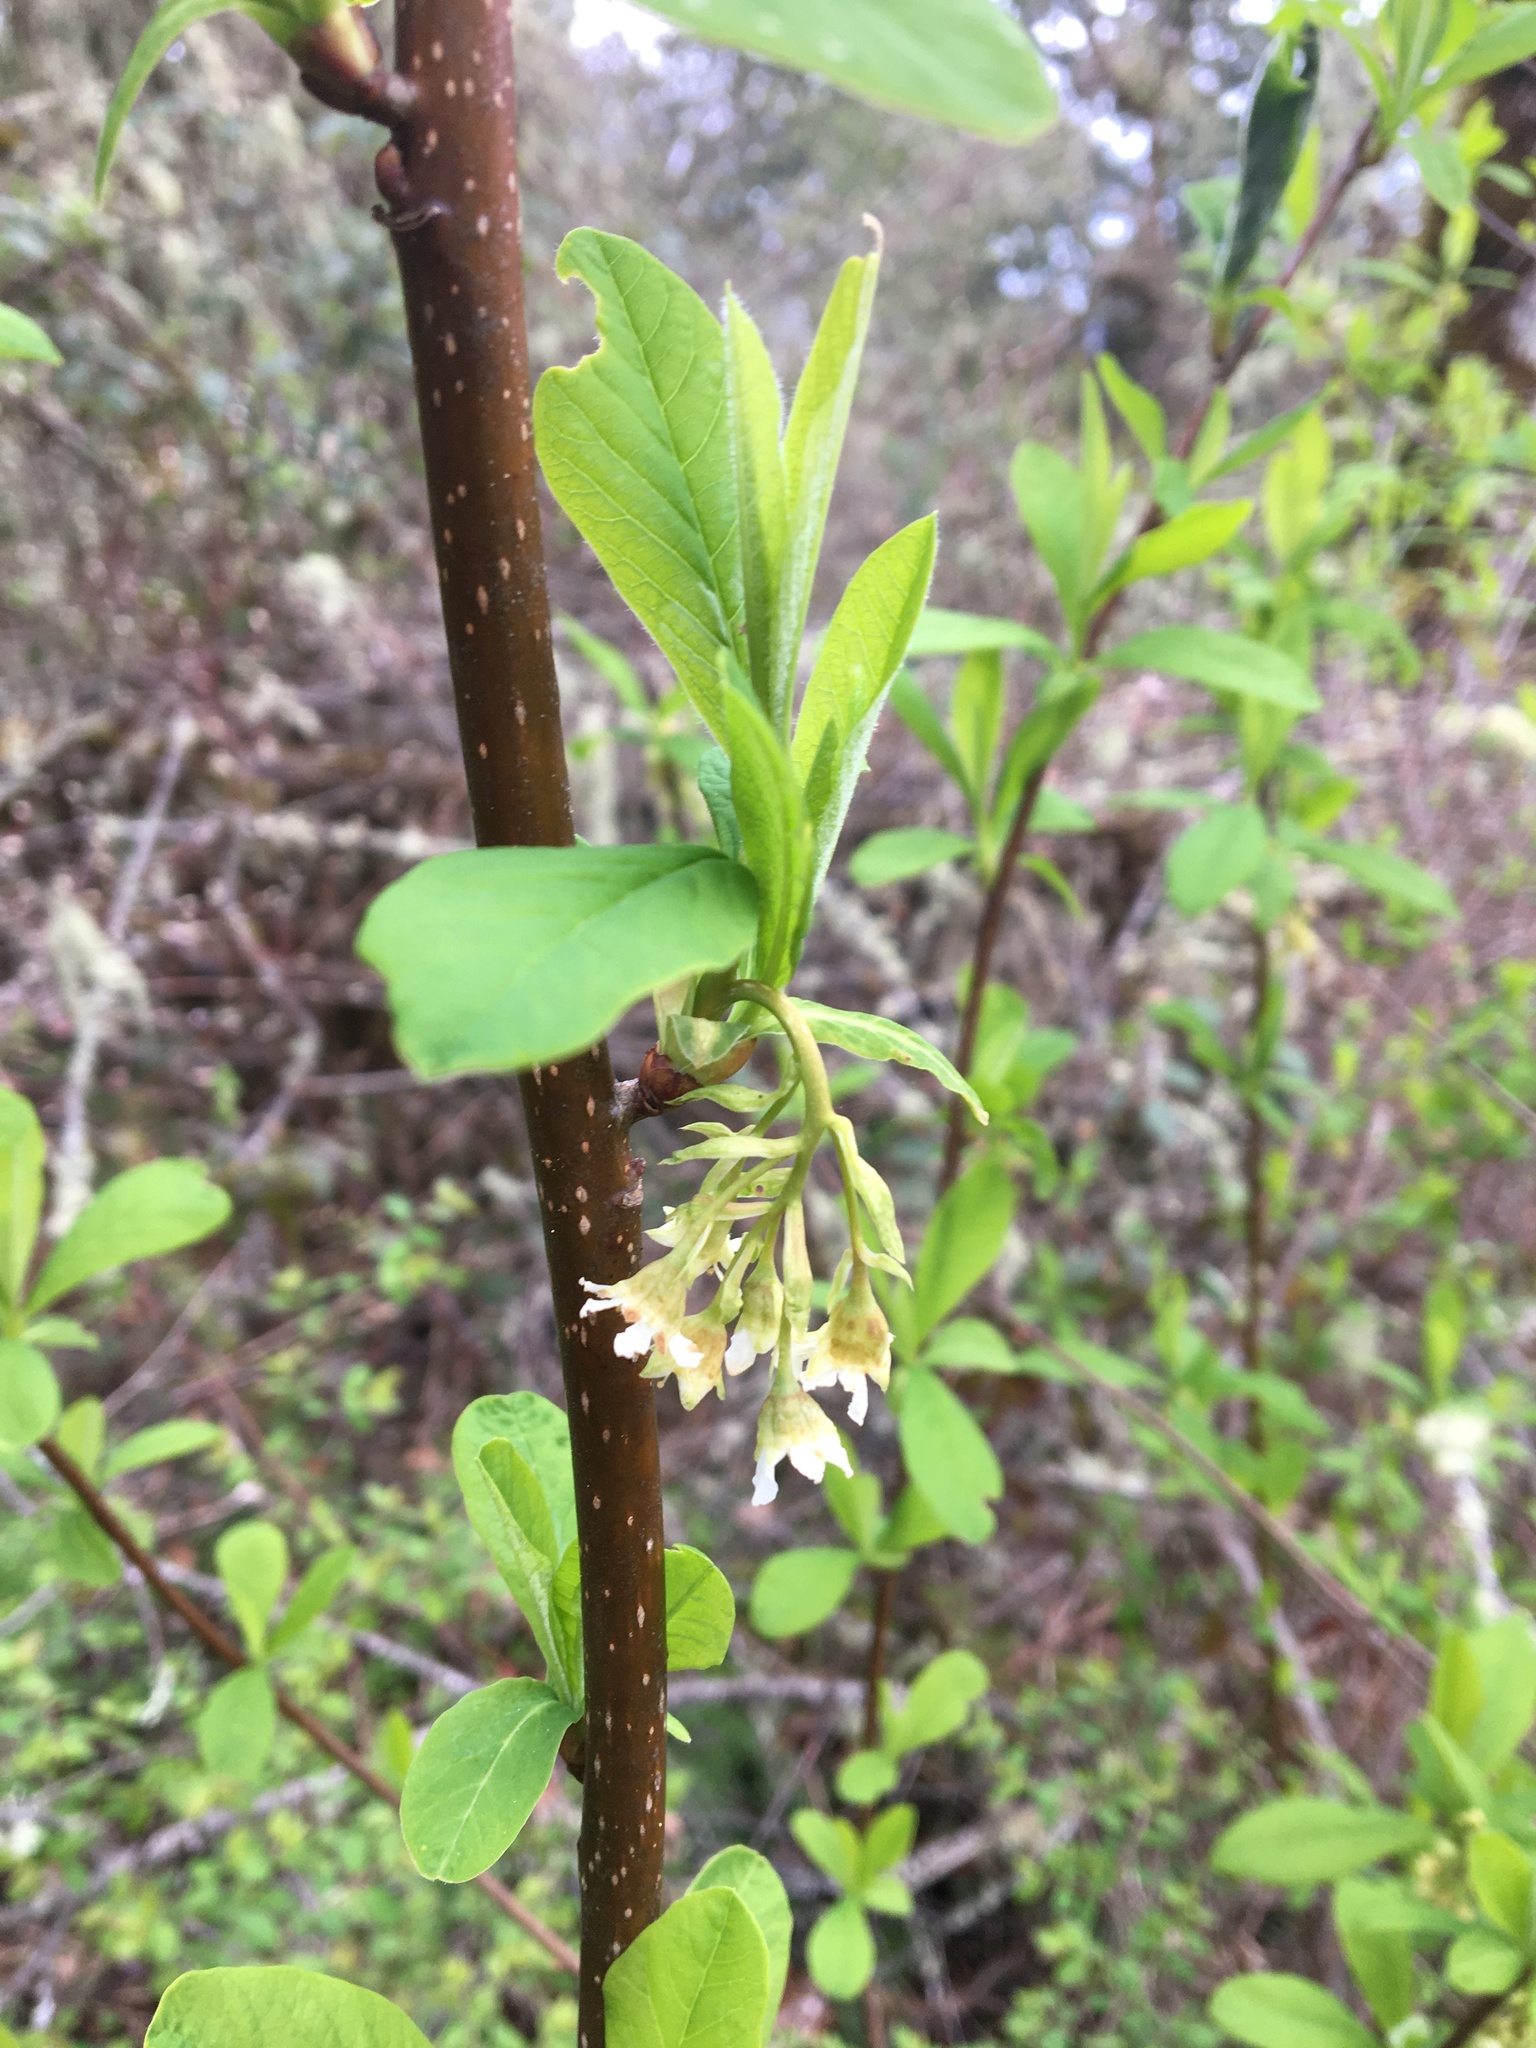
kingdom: Plantae
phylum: Tracheophyta
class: Magnoliopsida
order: Rosales
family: Rosaceae
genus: Oemleria
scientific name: Oemleria cerasiformis
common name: Osoberry
